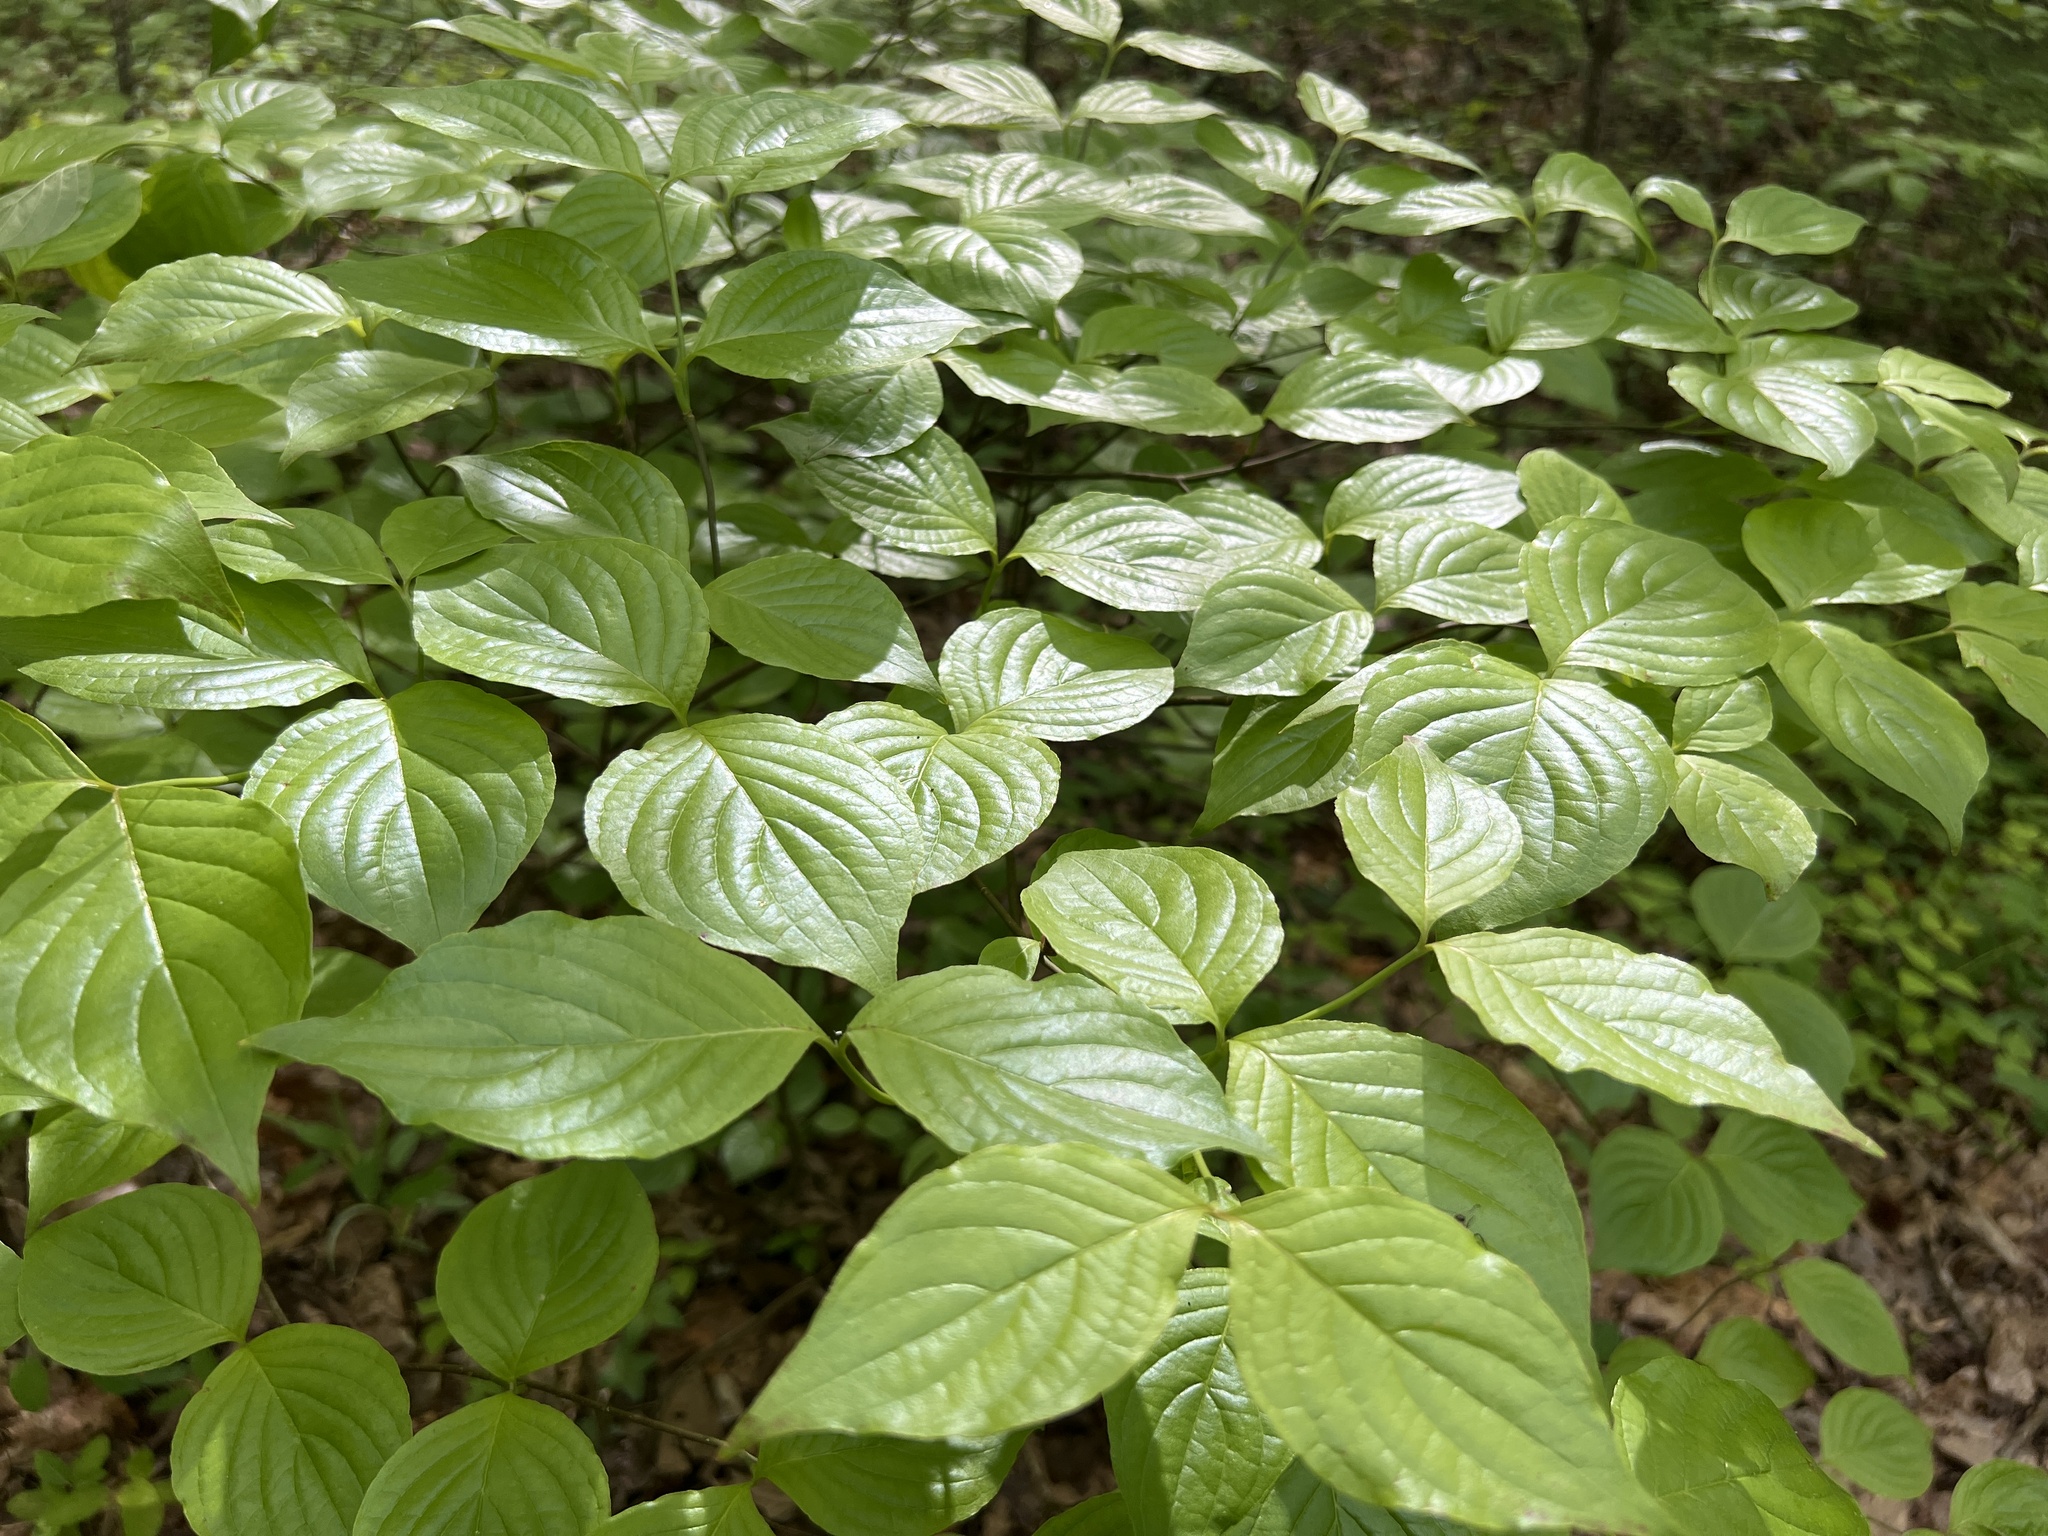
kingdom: Plantae
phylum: Tracheophyta
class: Magnoliopsida
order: Cornales
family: Cornaceae
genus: Cornus
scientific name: Cornus florida
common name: Flowering dogwood
